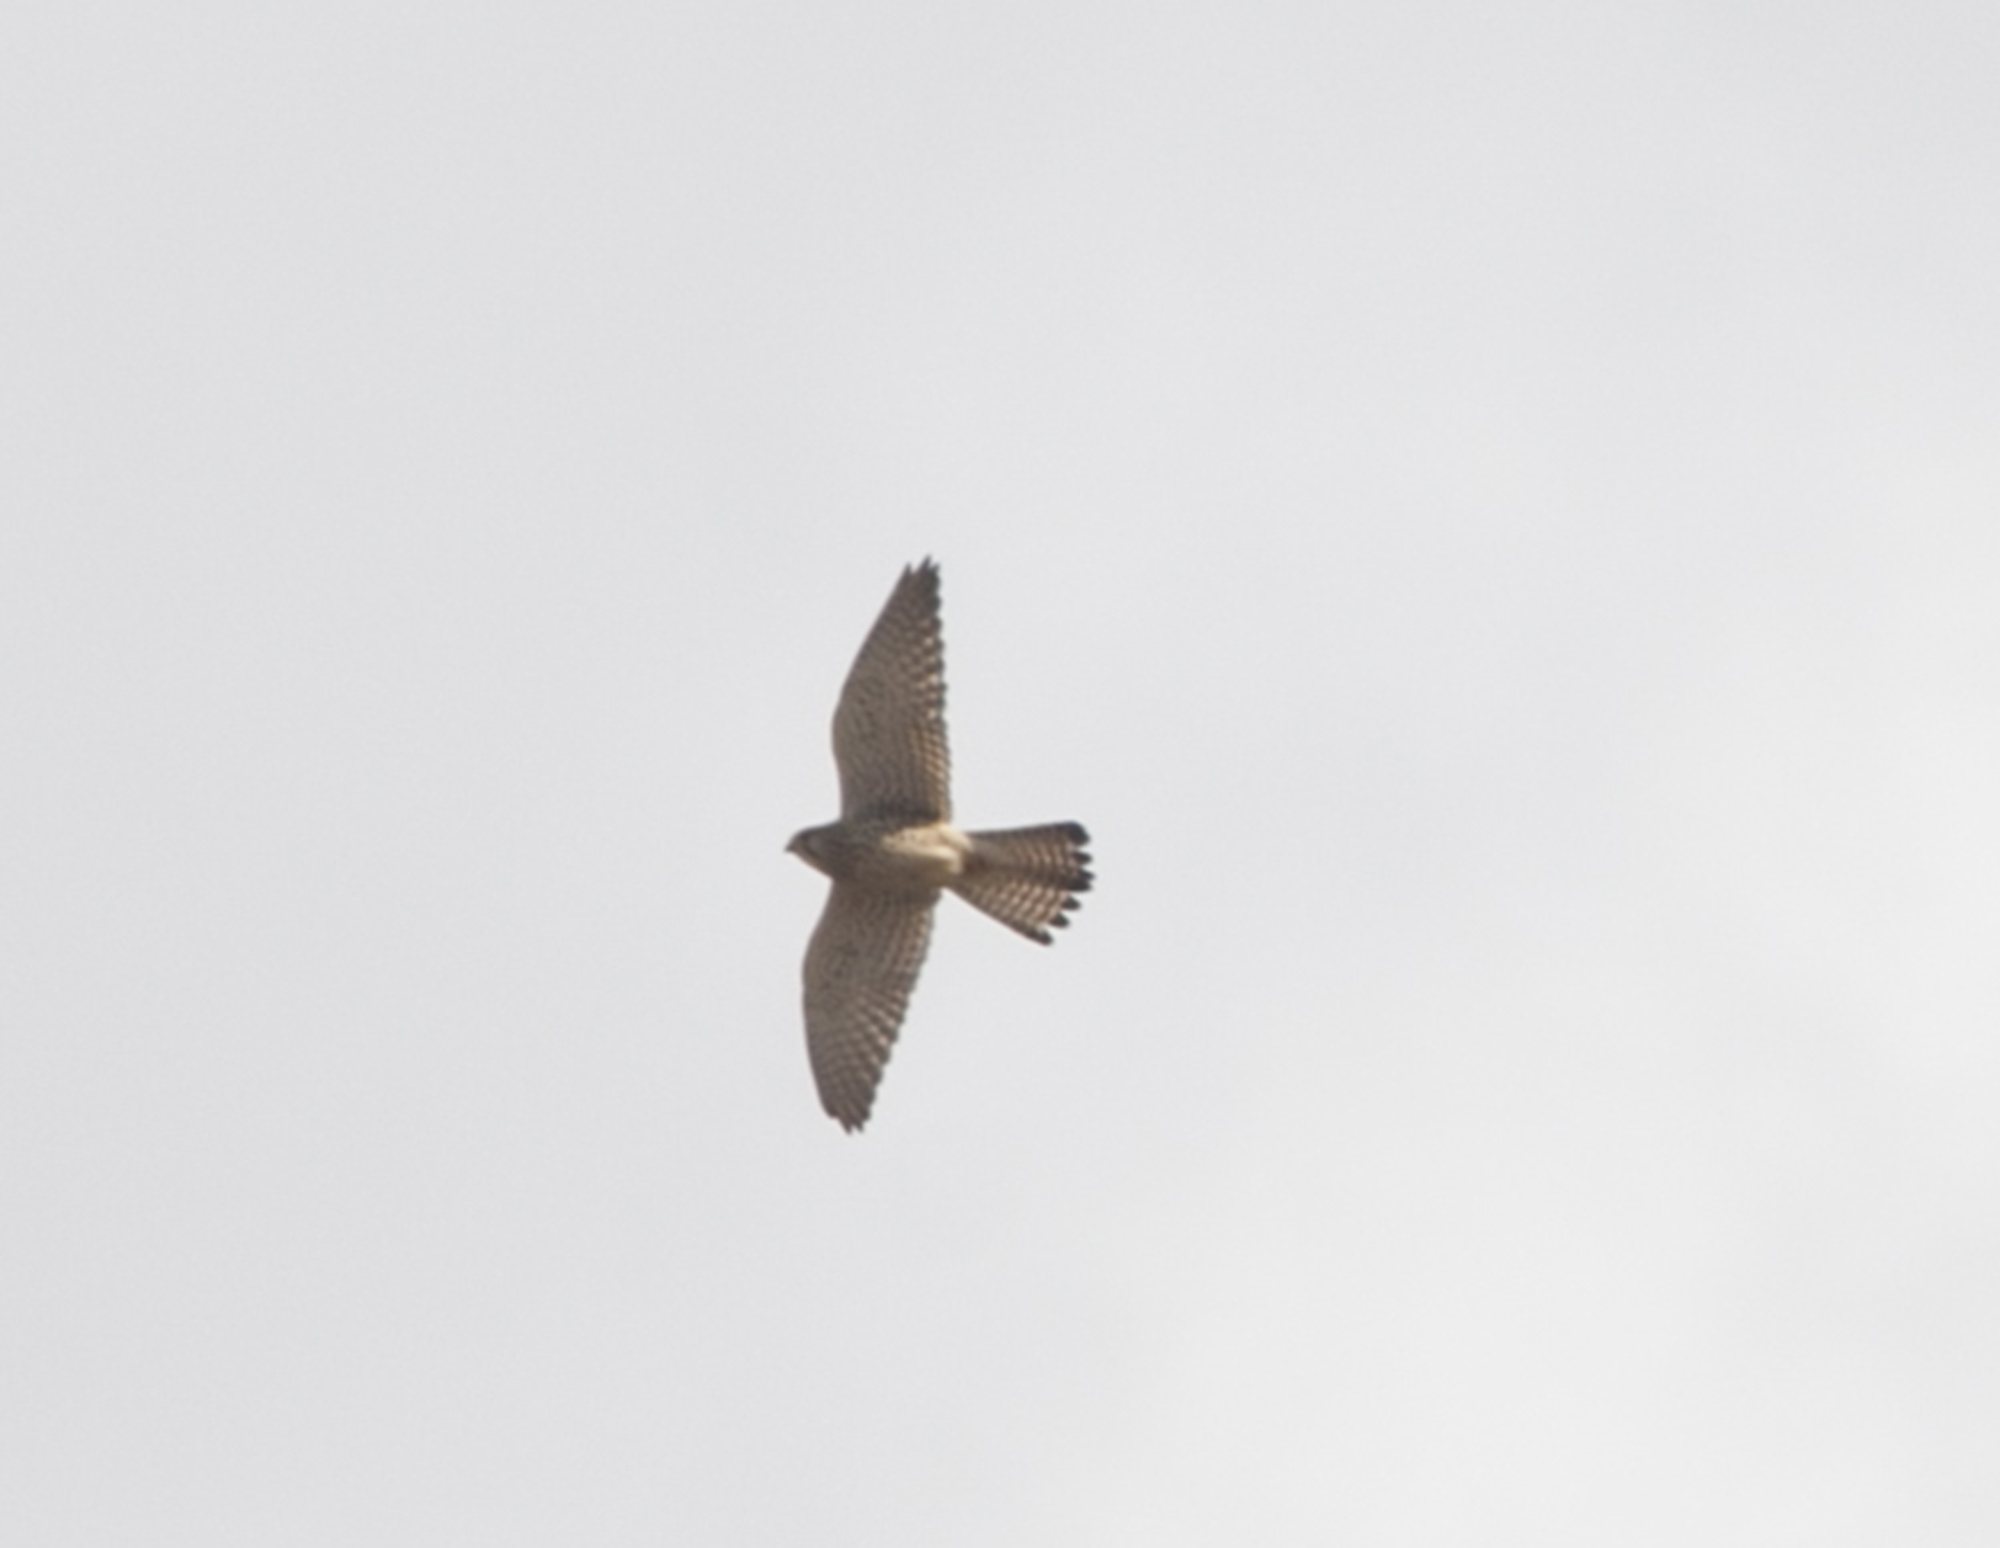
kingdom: Animalia
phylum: Chordata
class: Aves
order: Falconiformes
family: Falconidae
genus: Falco
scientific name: Falco tinnunculus
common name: Common kestrel
